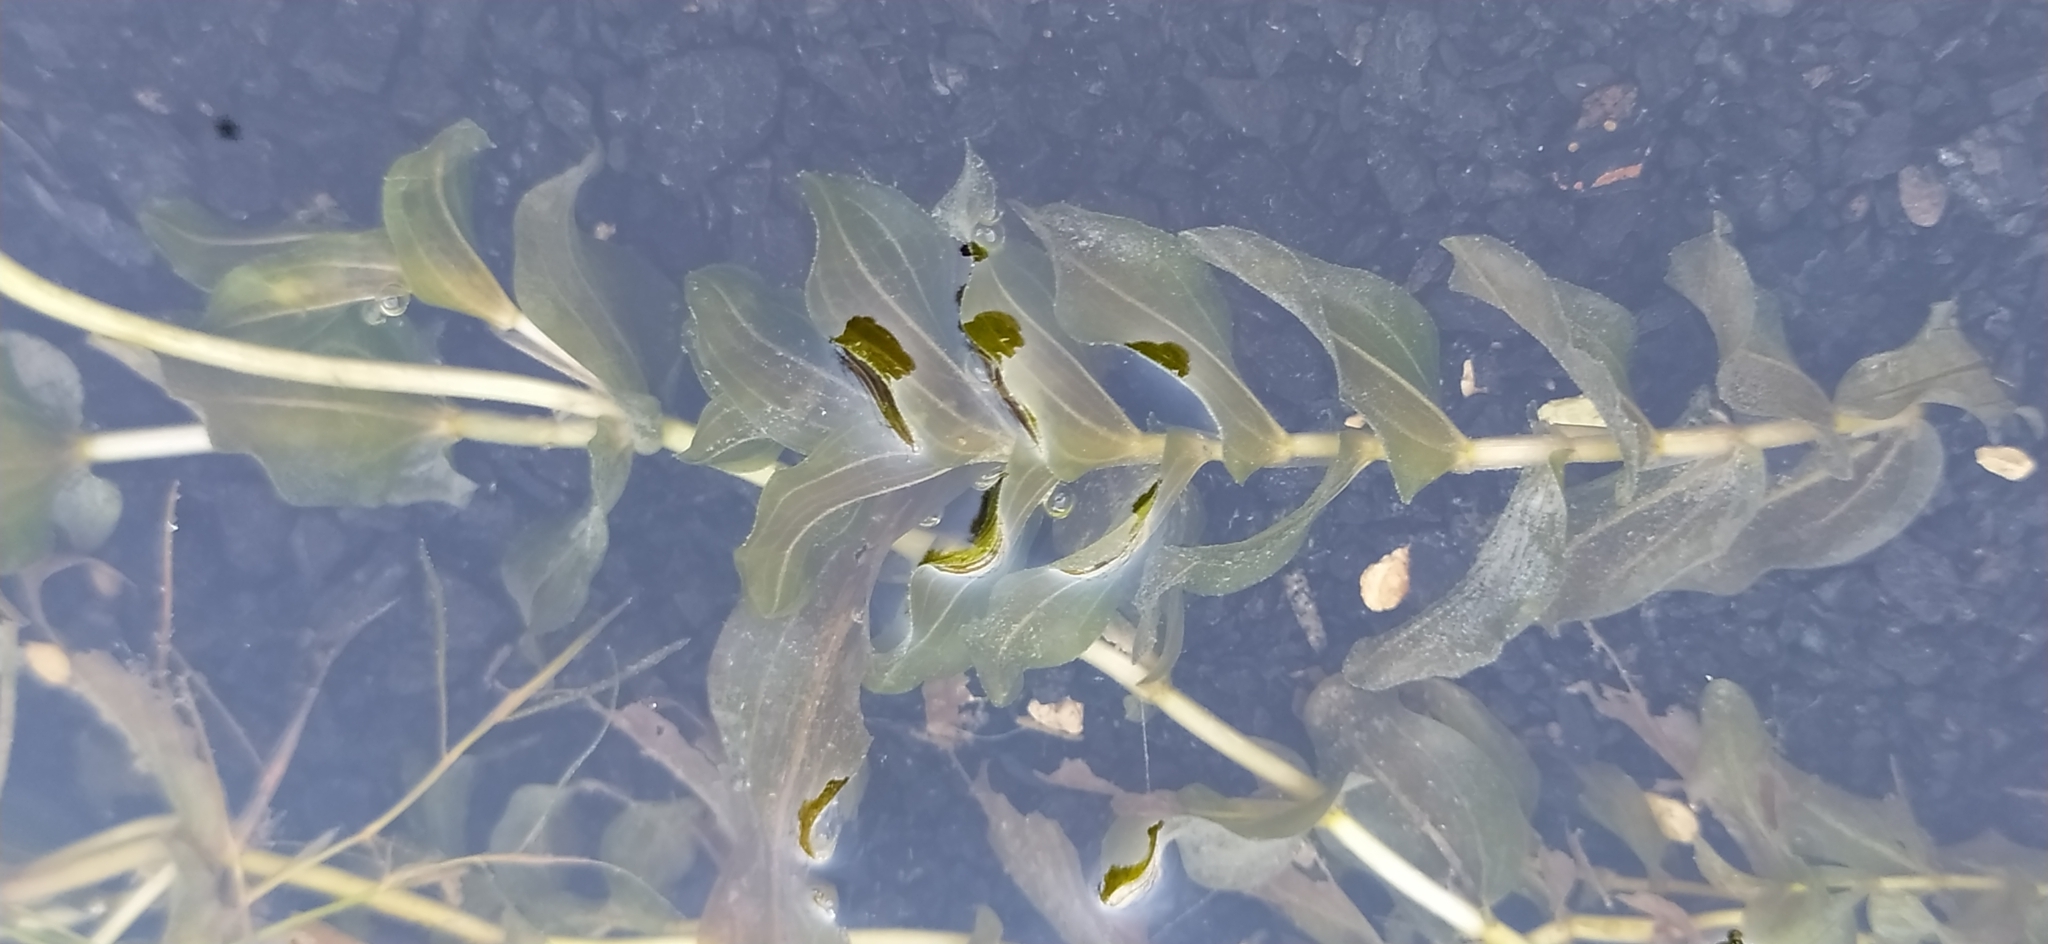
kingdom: Plantae
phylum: Tracheophyta
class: Liliopsida
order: Alismatales
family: Potamogetonaceae
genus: Potamogeton
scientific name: Potamogeton perfoliatus
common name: Perfoliate pondweed
